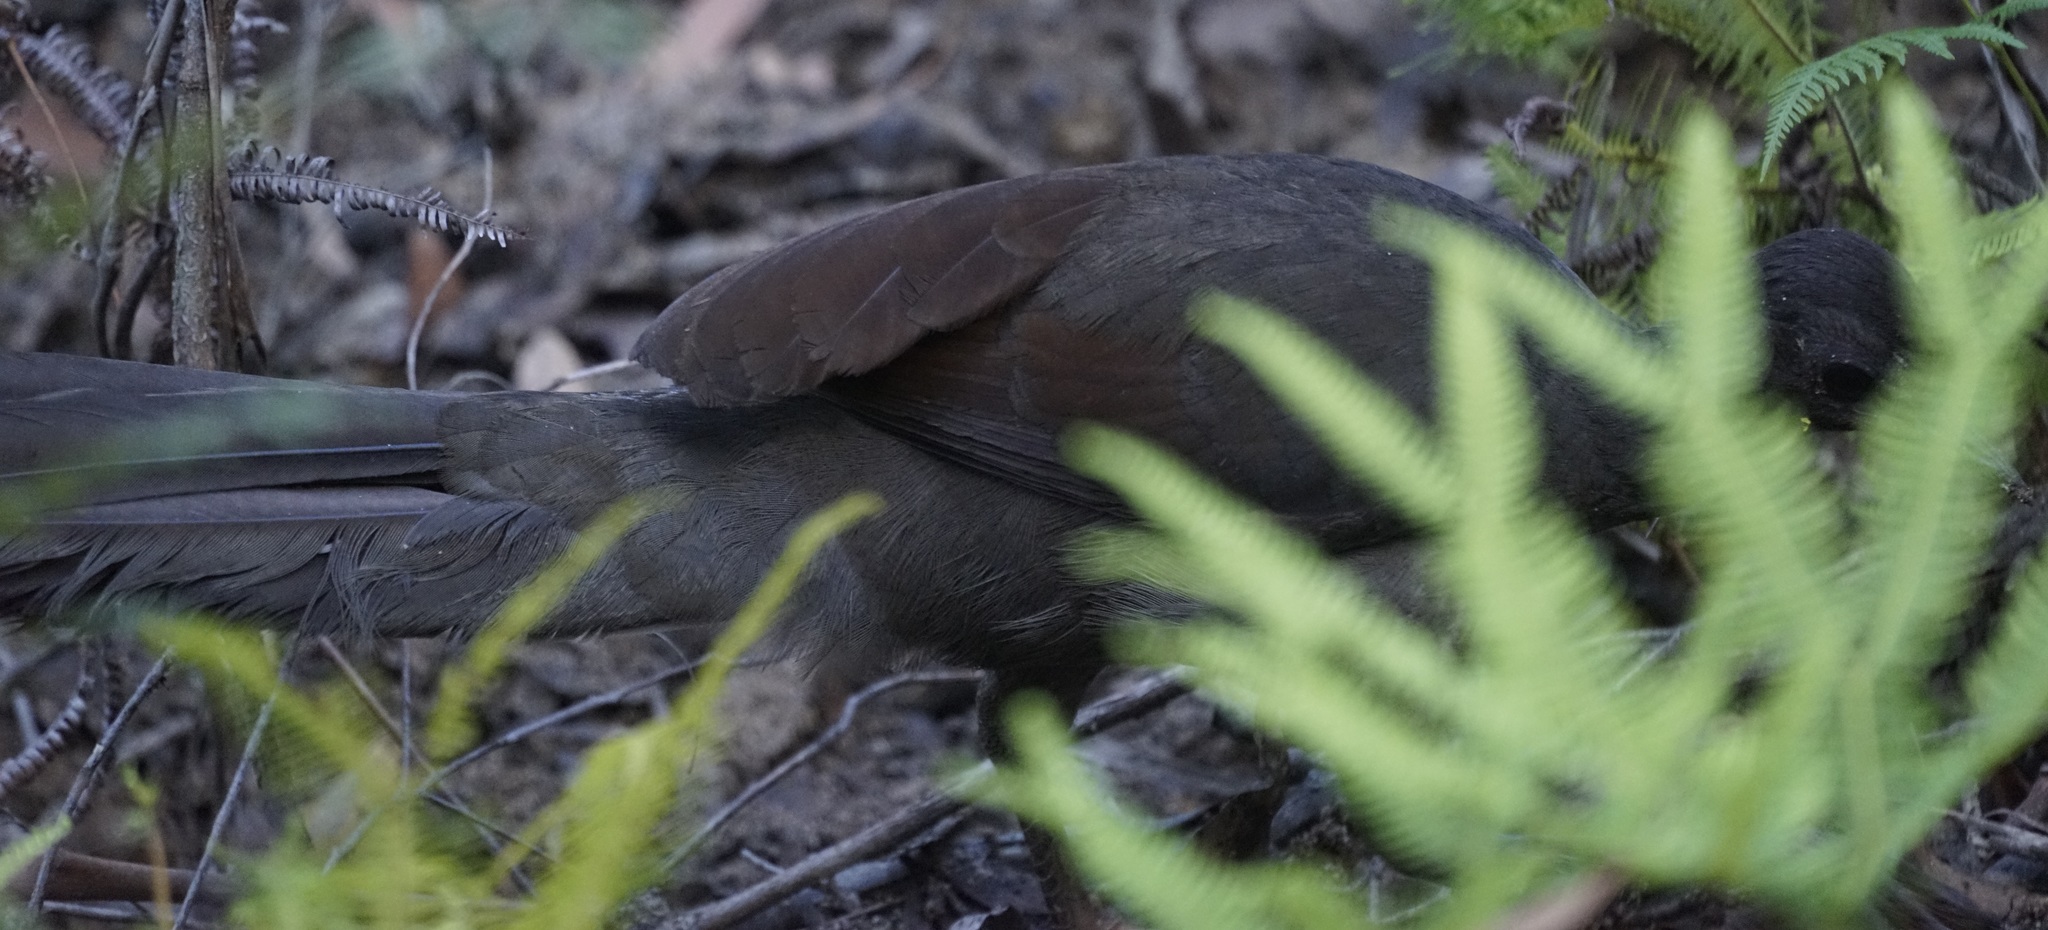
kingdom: Animalia
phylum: Chordata
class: Aves
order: Passeriformes
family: Menuridae
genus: Menura
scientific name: Menura novaehollandiae
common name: Superb lyrebird
